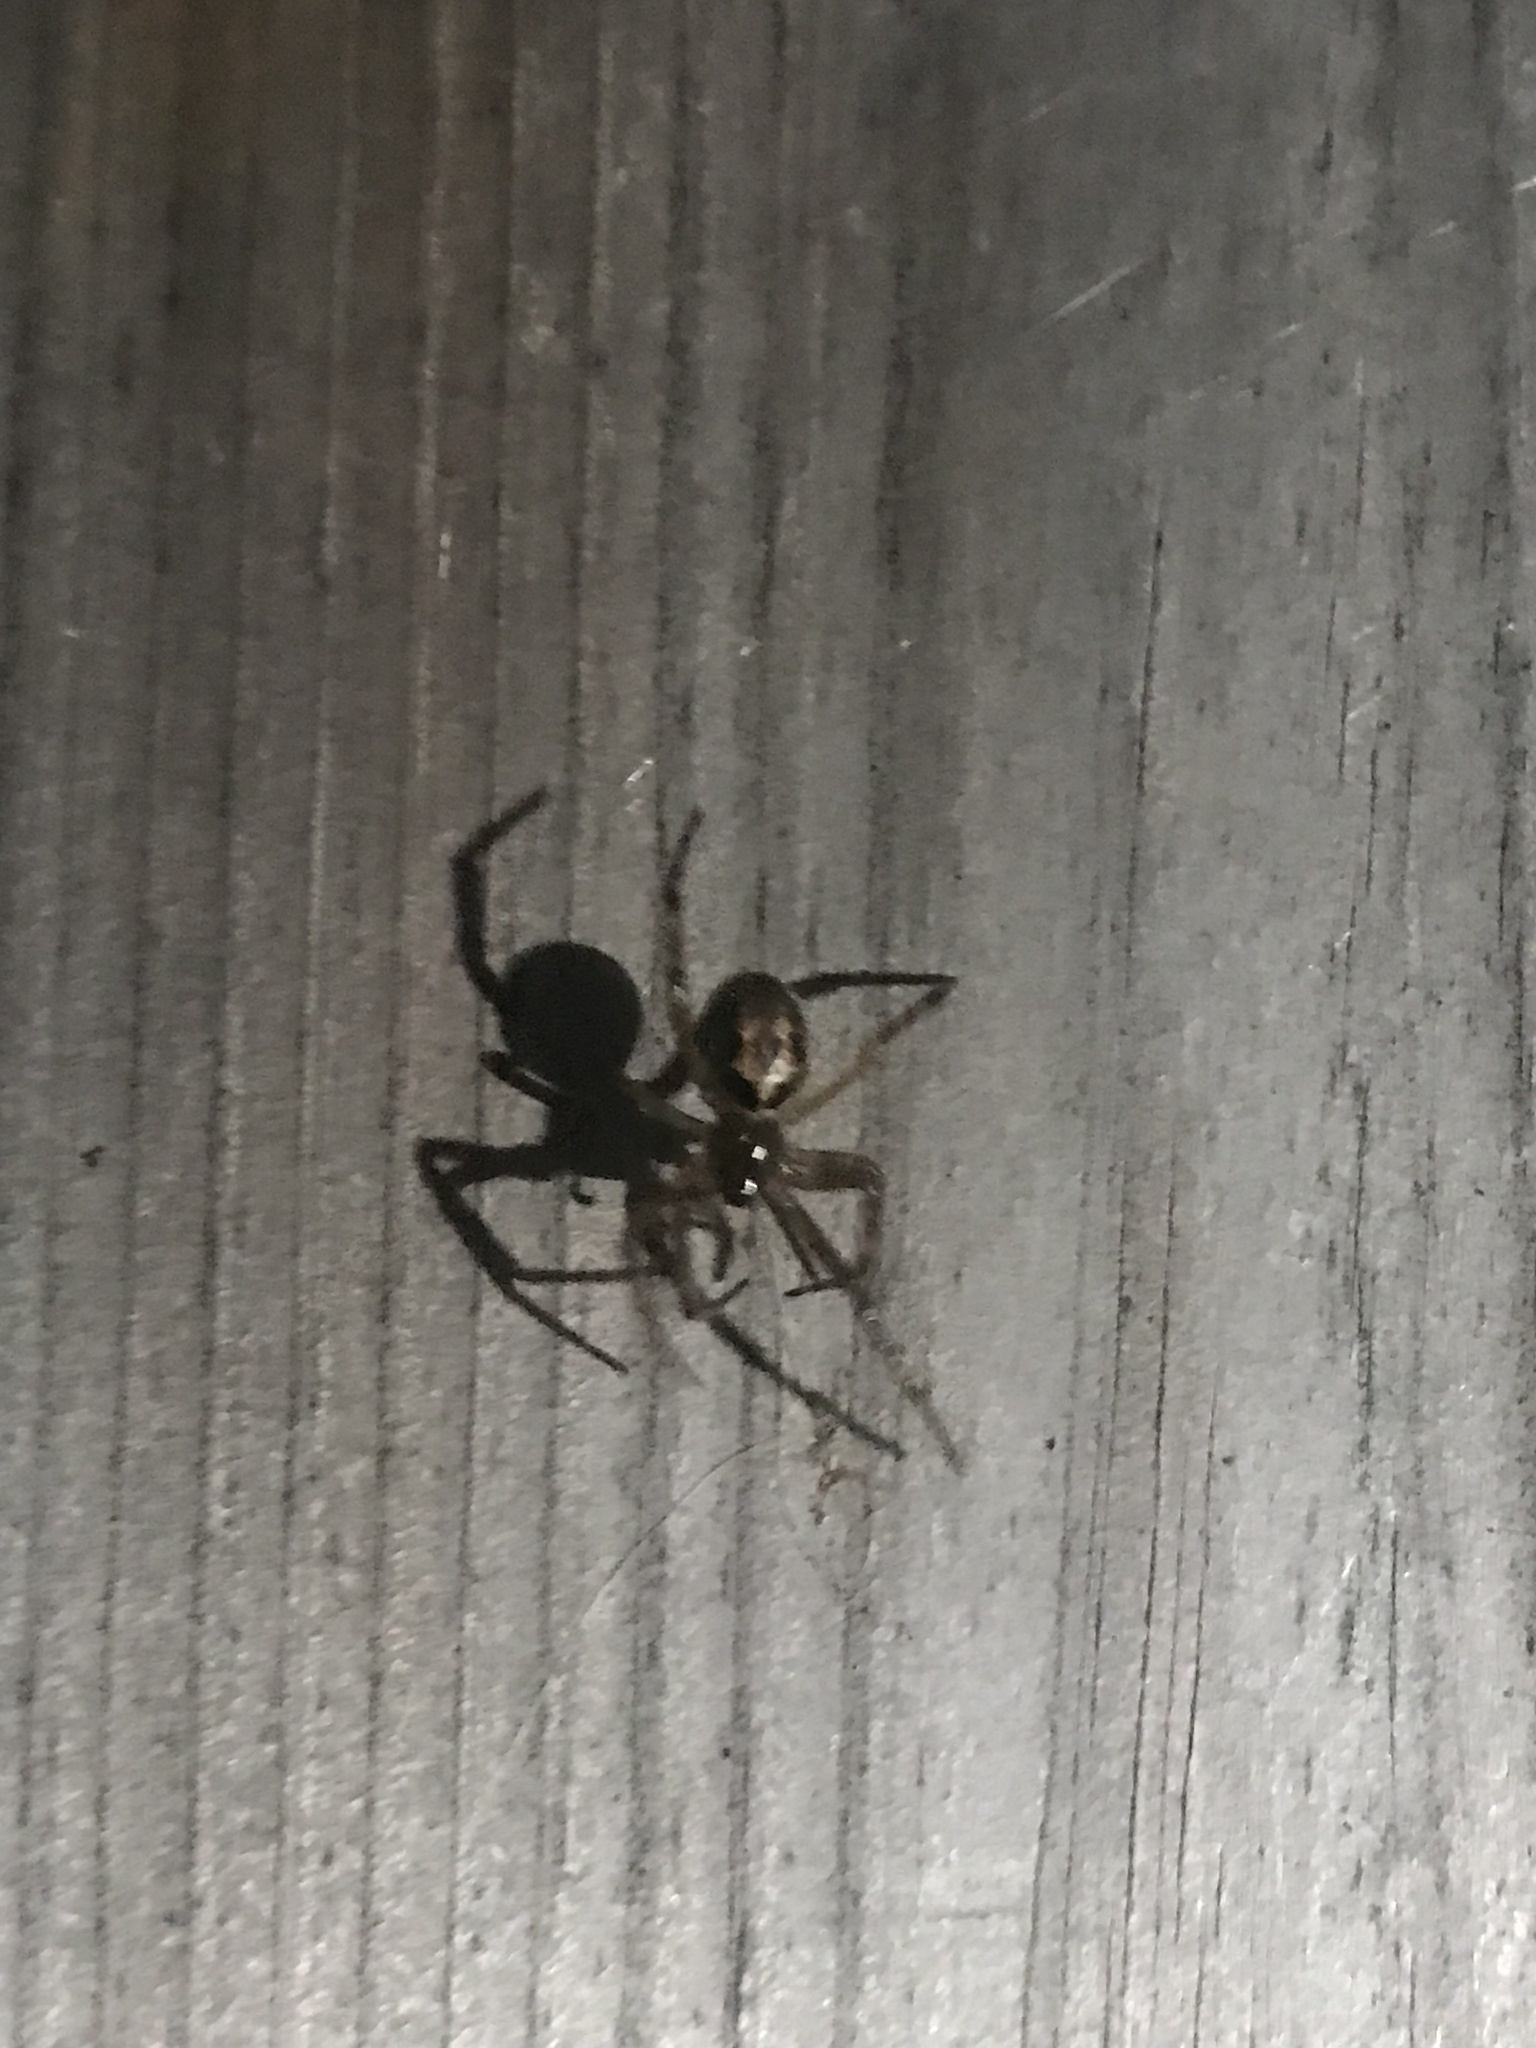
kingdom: Animalia
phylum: Arthropoda
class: Arachnida
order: Araneae
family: Theridiidae
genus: Steatoda
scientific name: Steatoda nobilis
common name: Cobweb weaver
